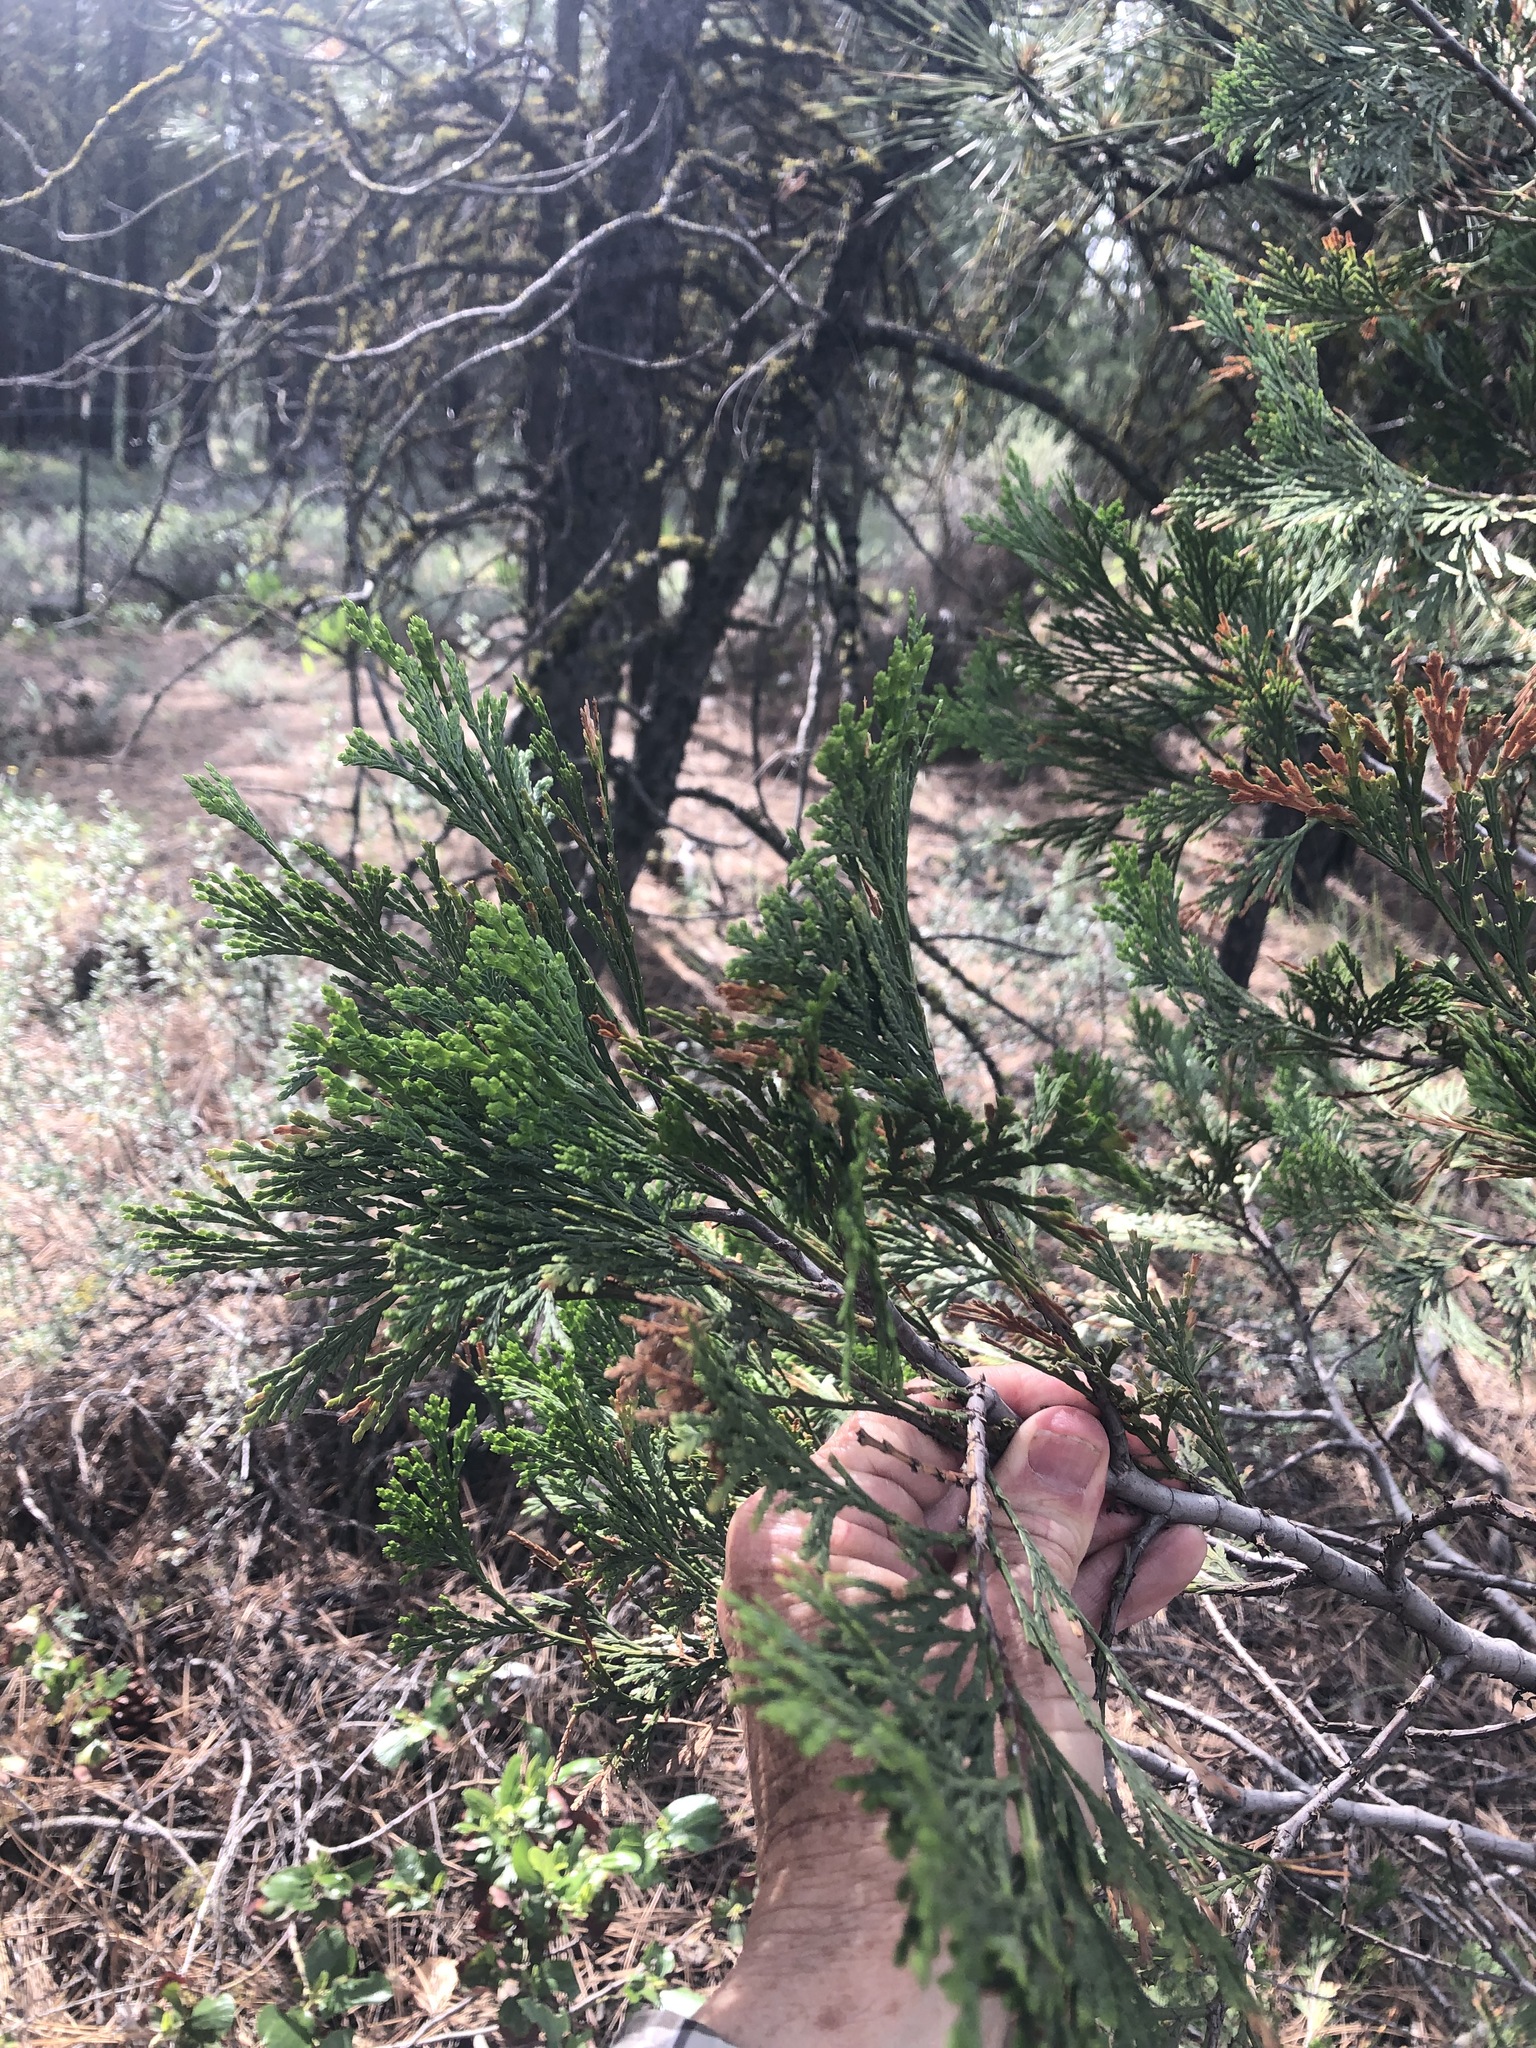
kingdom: Plantae
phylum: Tracheophyta
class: Pinopsida
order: Pinales
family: Cupressaceae
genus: Calocedrus
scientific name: Calocedrus decurrens
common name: Californian incense-cedar
